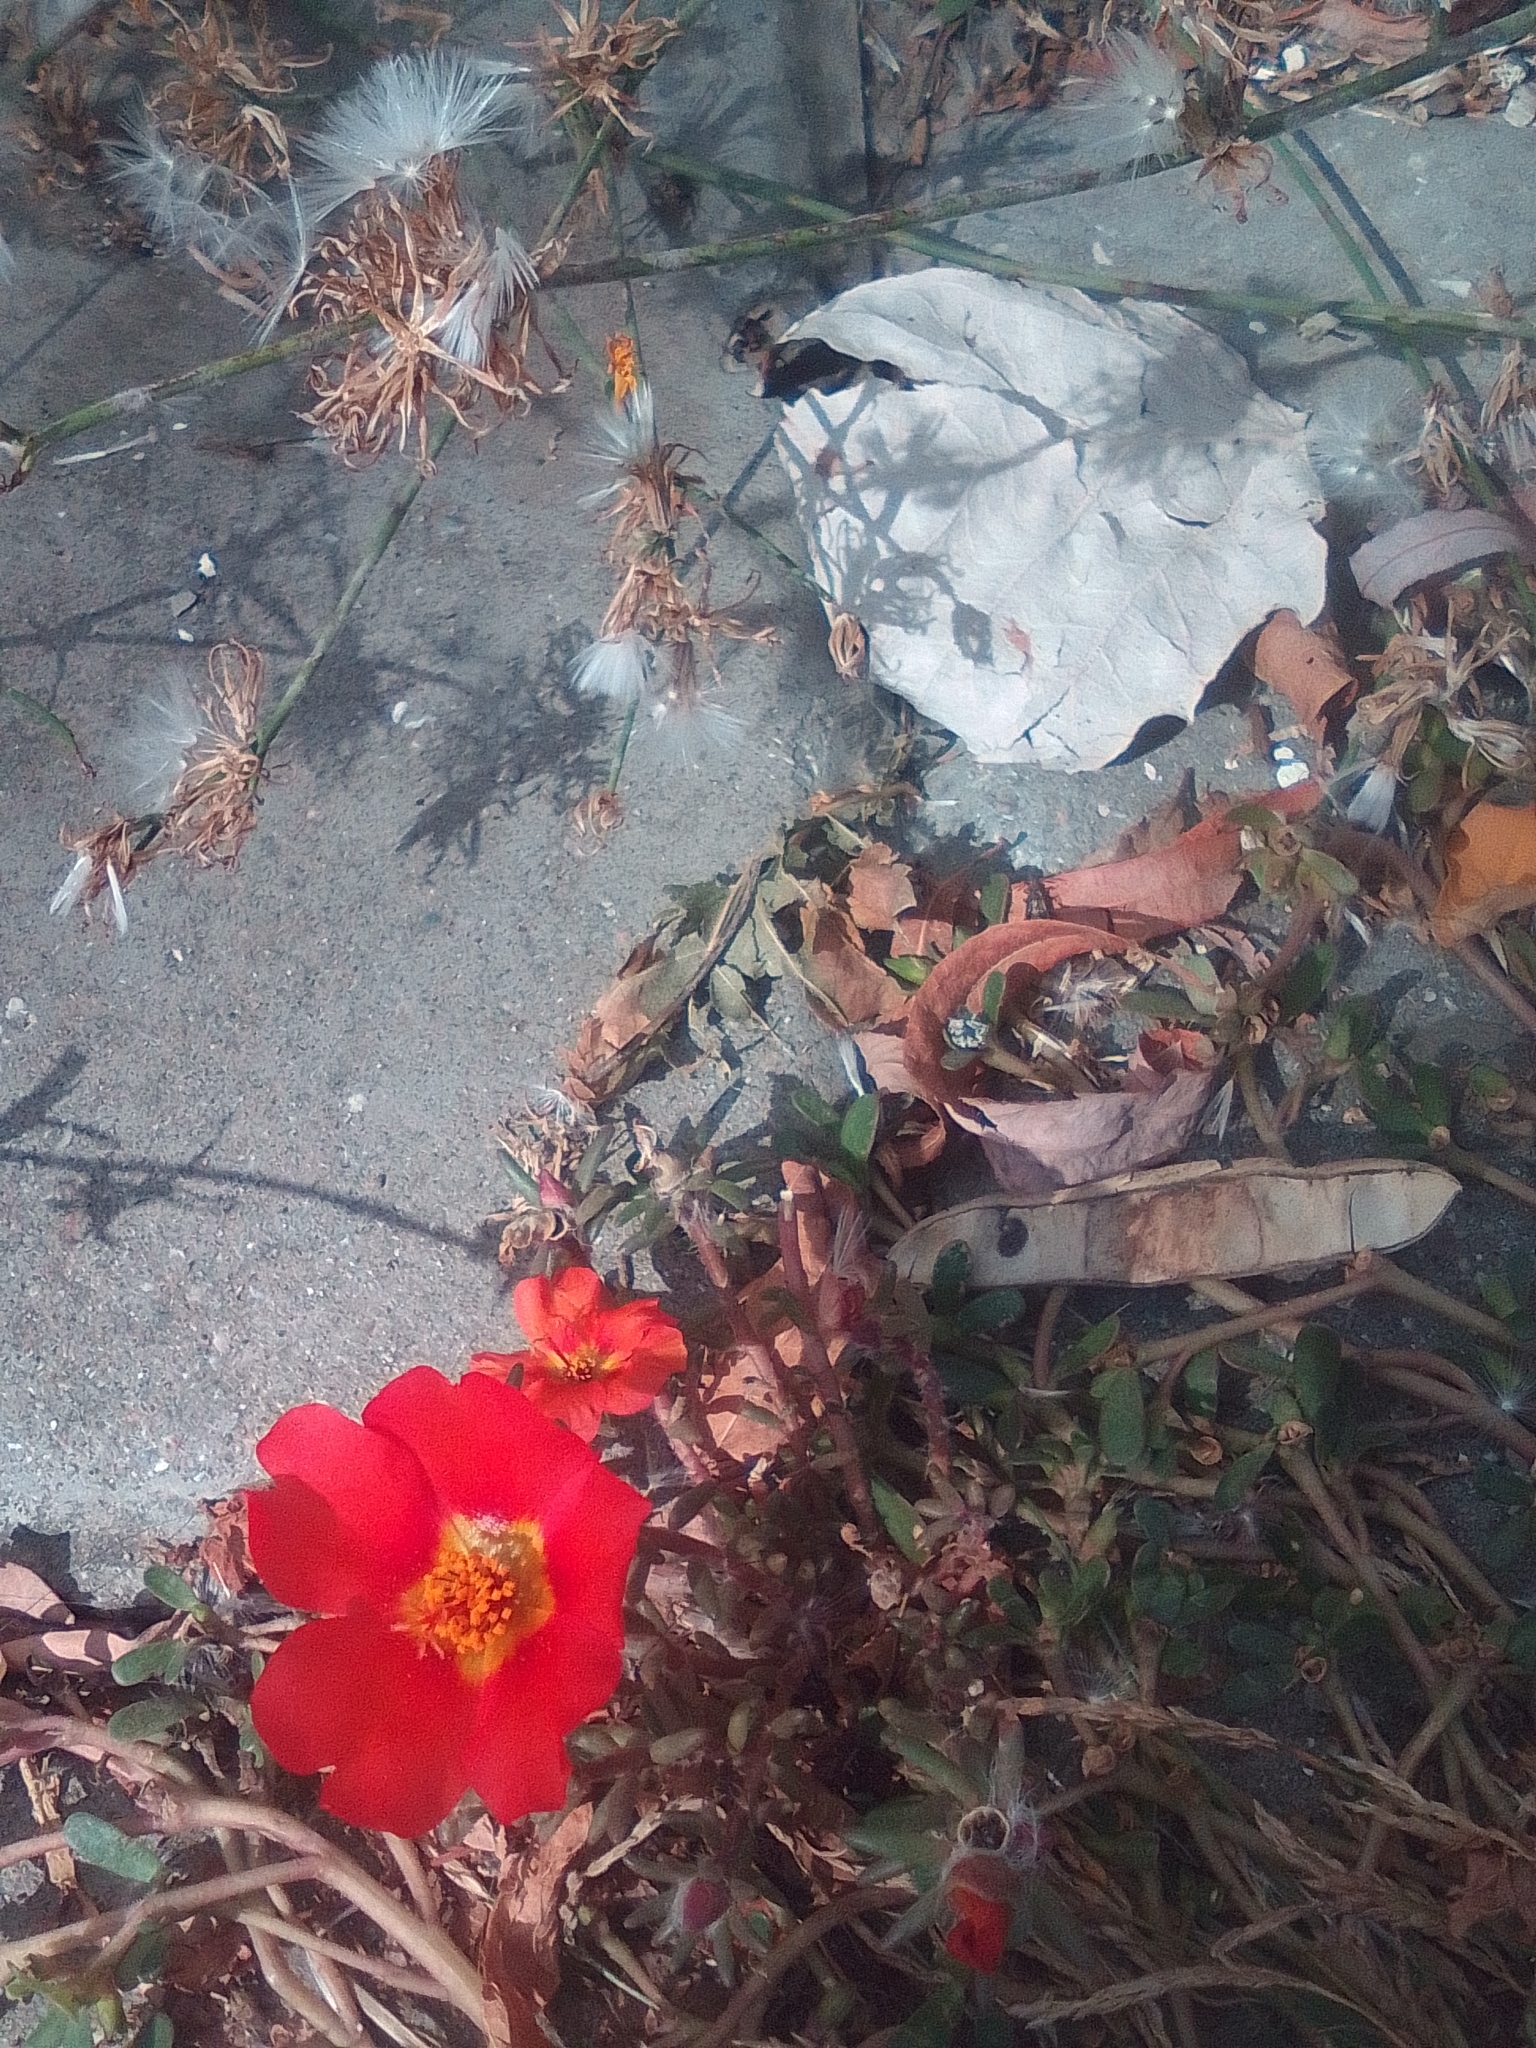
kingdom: Plantae
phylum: Tracheophyta
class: Magnoliopsida
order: Caryophyllales
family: Portulacaceae
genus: Portulaca
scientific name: Portulaca grandiflora
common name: Moss-rose
